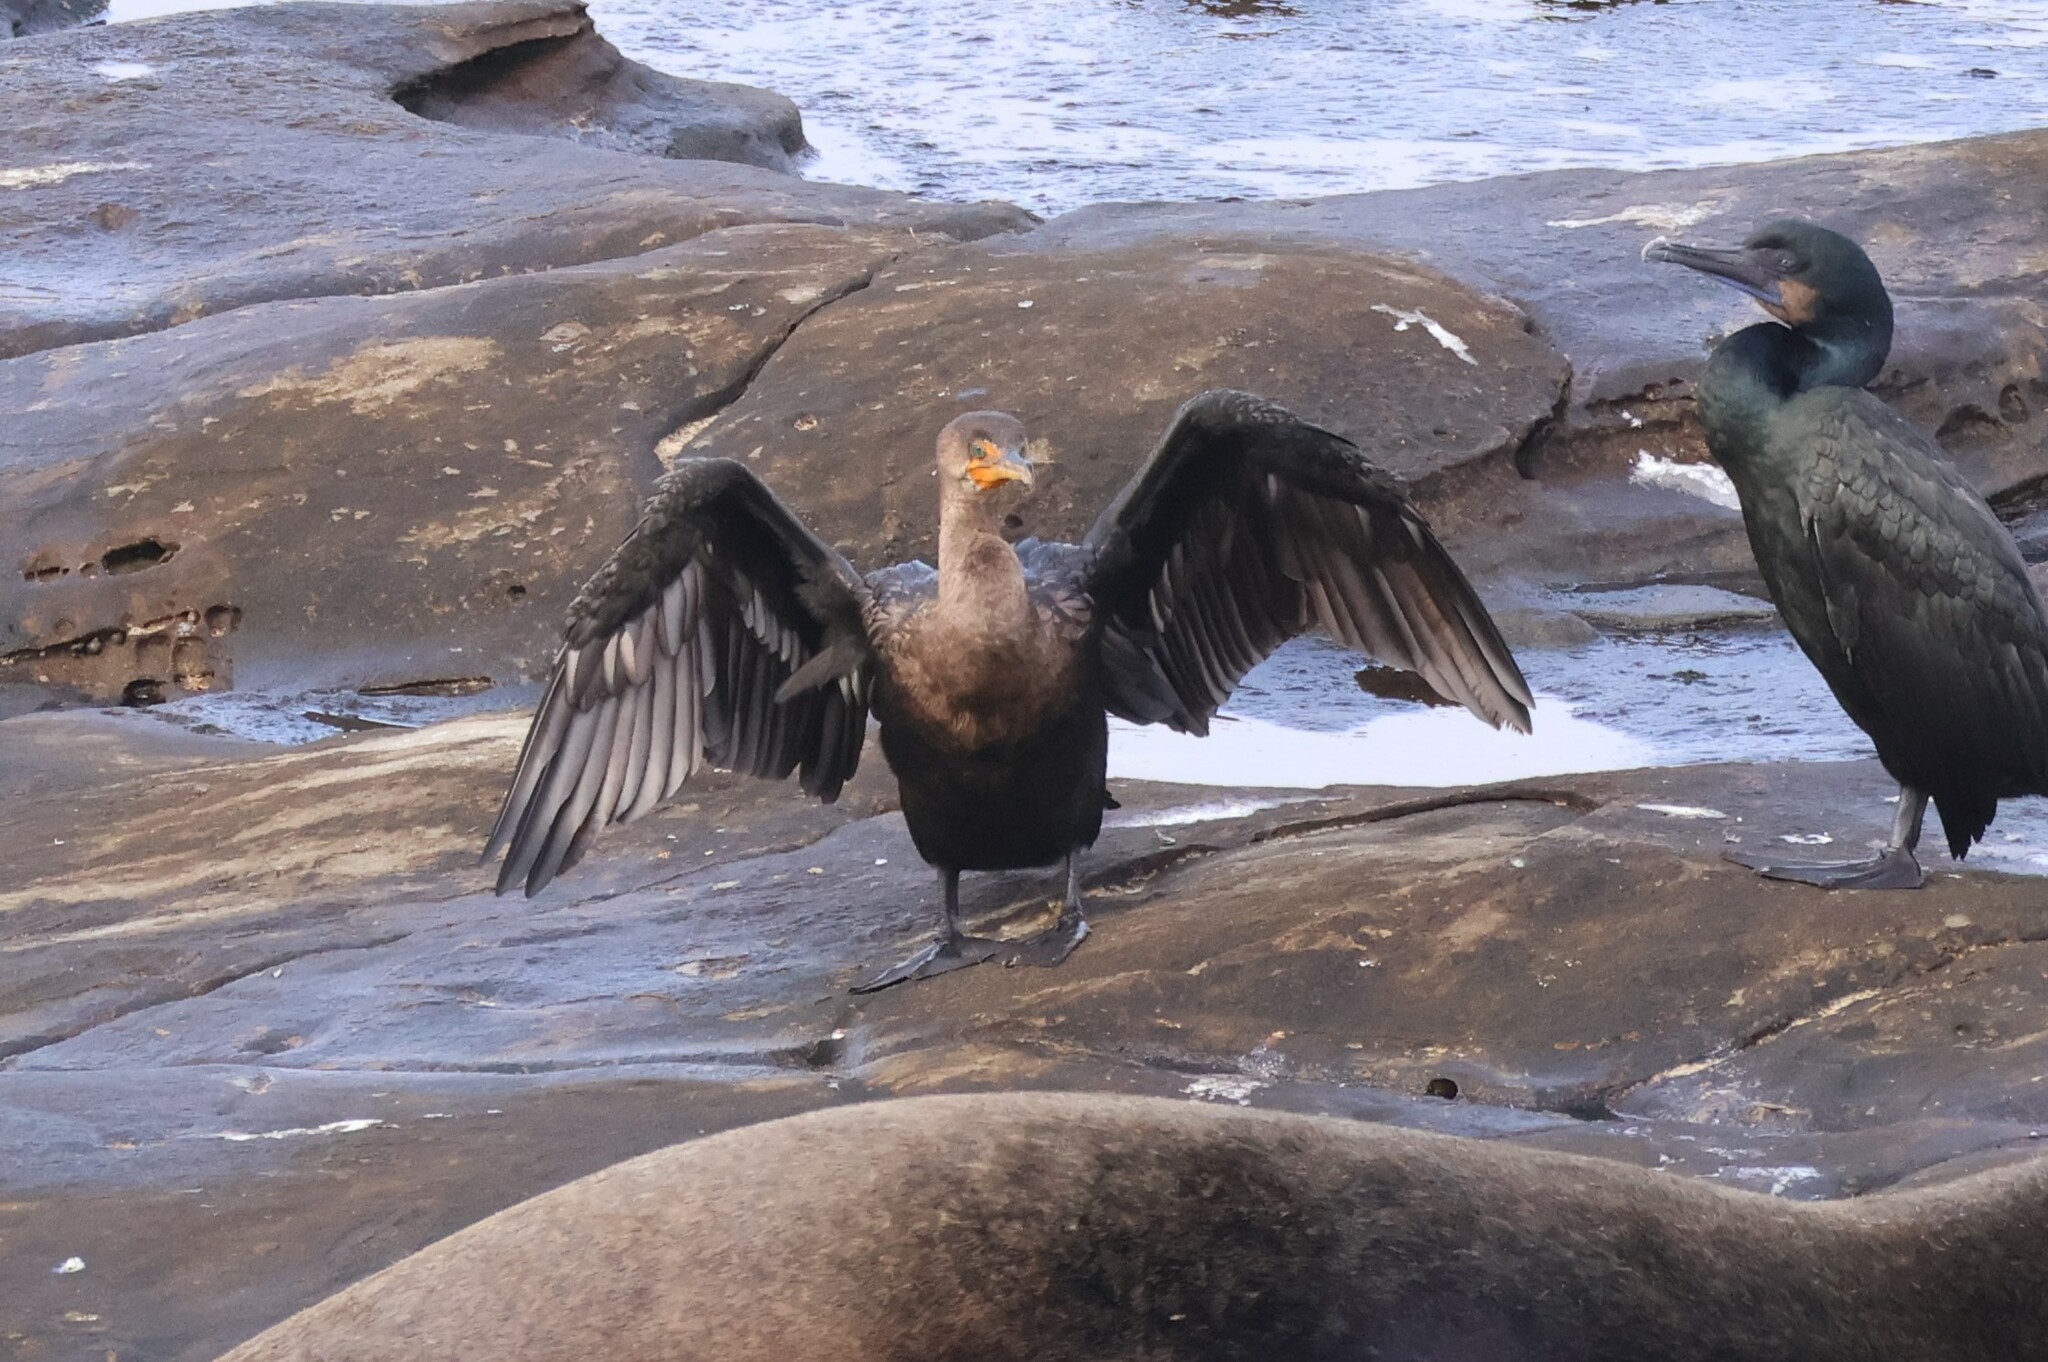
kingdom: Animalia
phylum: Chordata
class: Aves
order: Suliformes
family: Phalacrocoracidae
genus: Phalacrocorax
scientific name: Phalacrocorax auritus
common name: Double-crested cormorant
